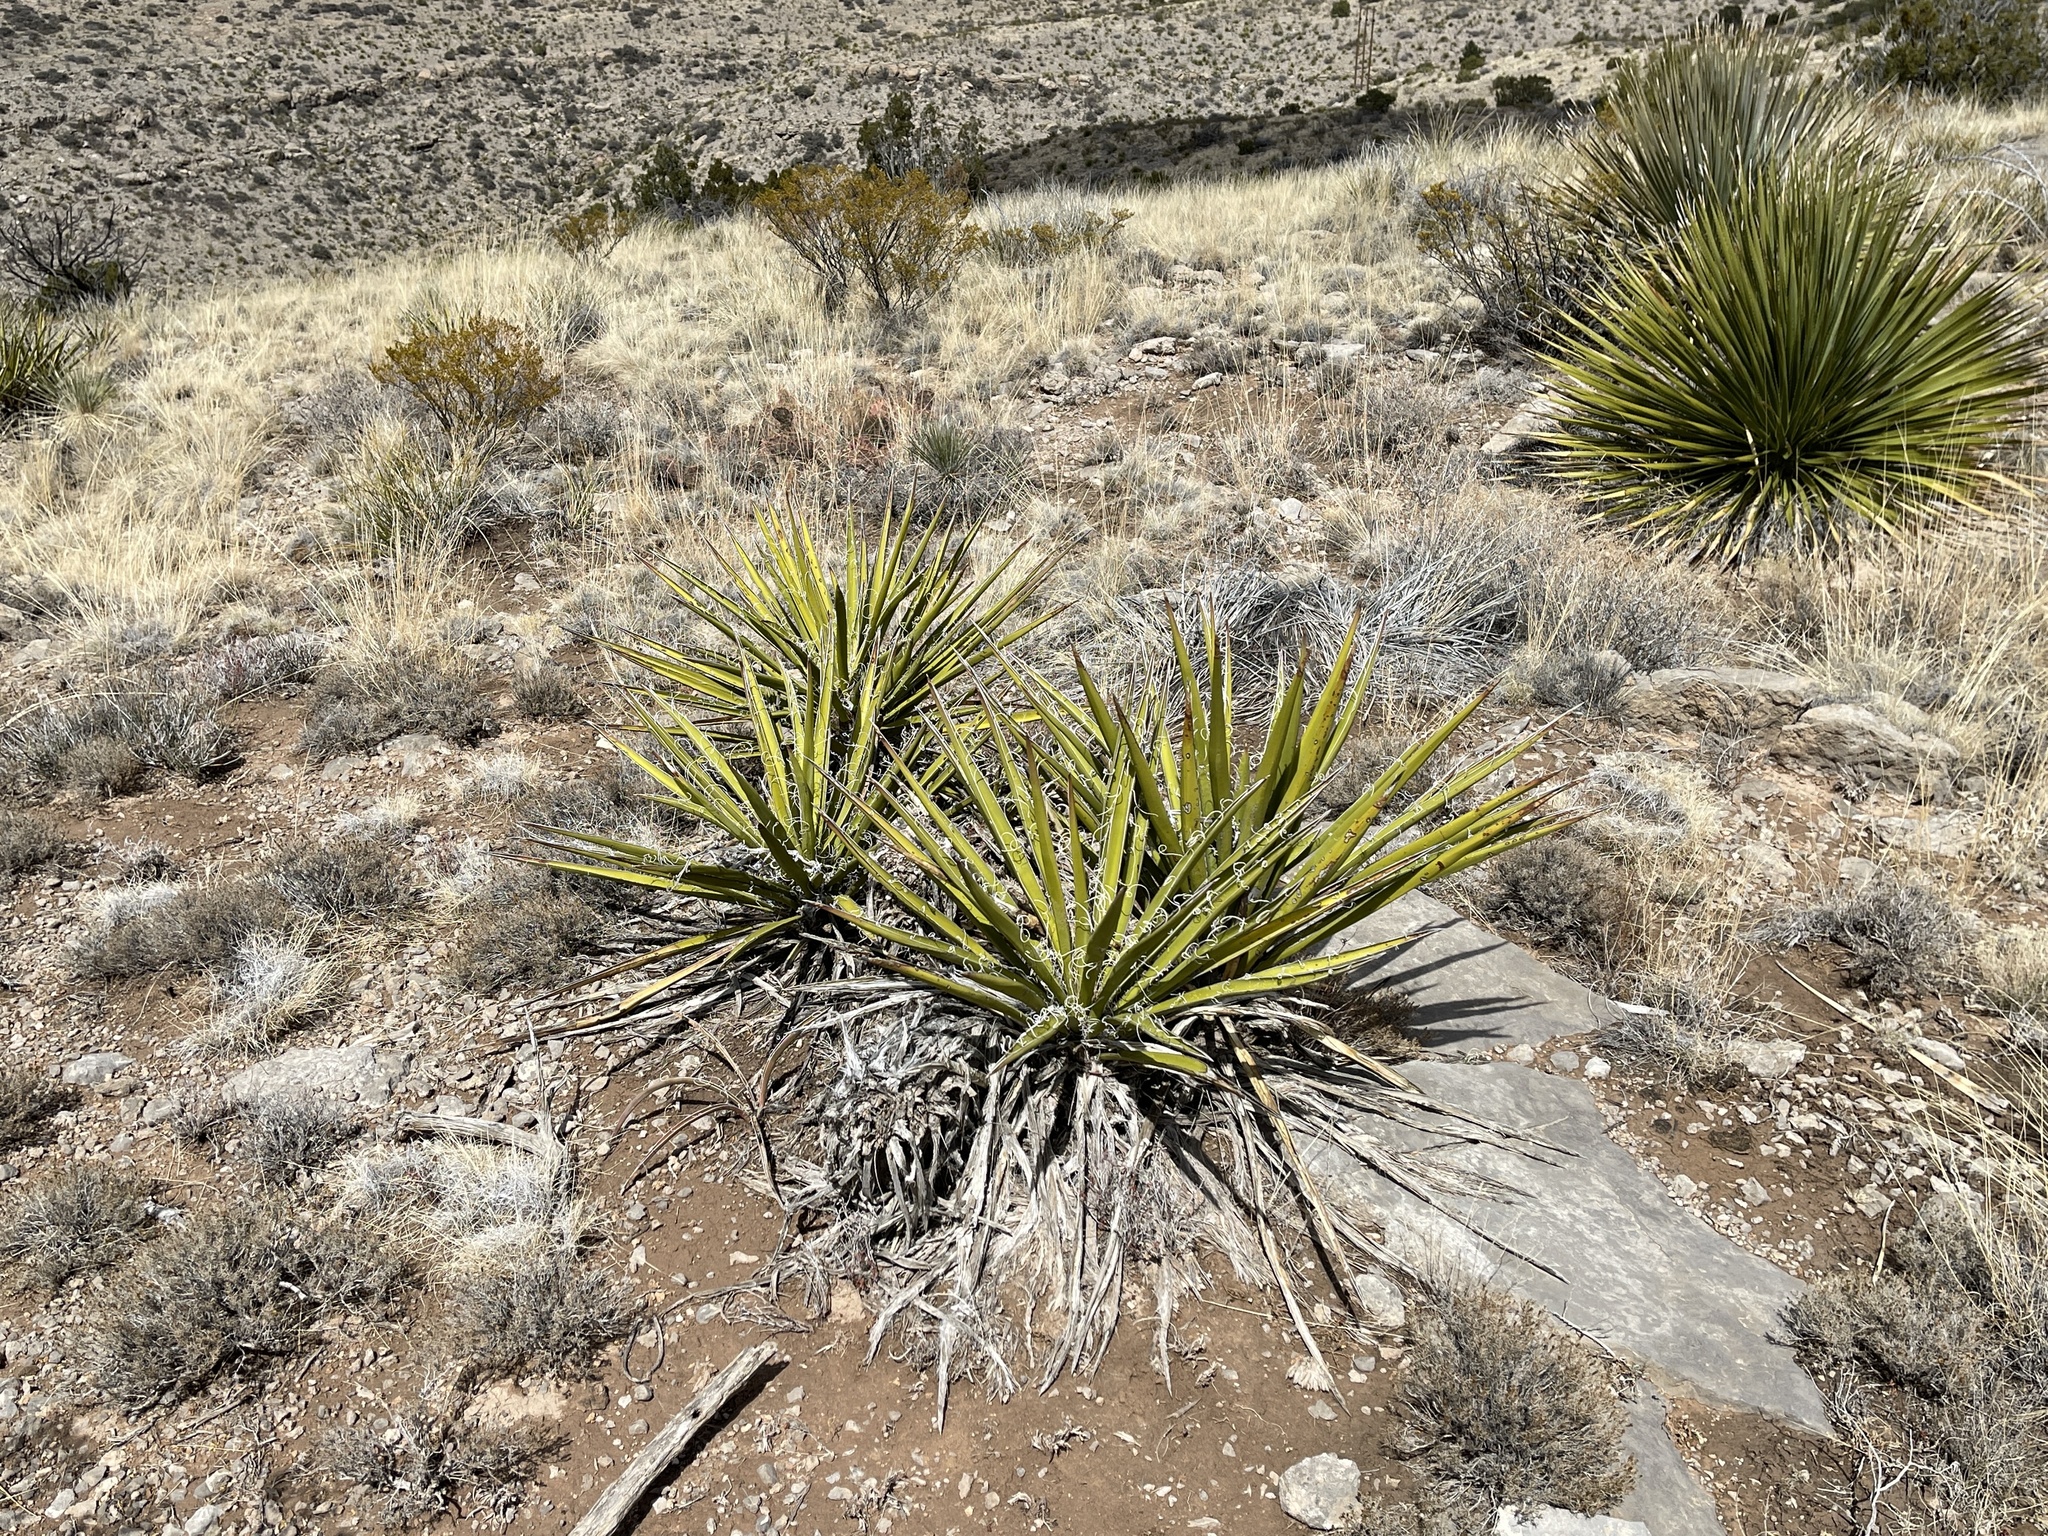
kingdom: Plantae
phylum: Tracheophyta
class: Liliopsida
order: Asparagales
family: Asparagaceae
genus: Yucca
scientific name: Yucca baccata
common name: Banana yucca
